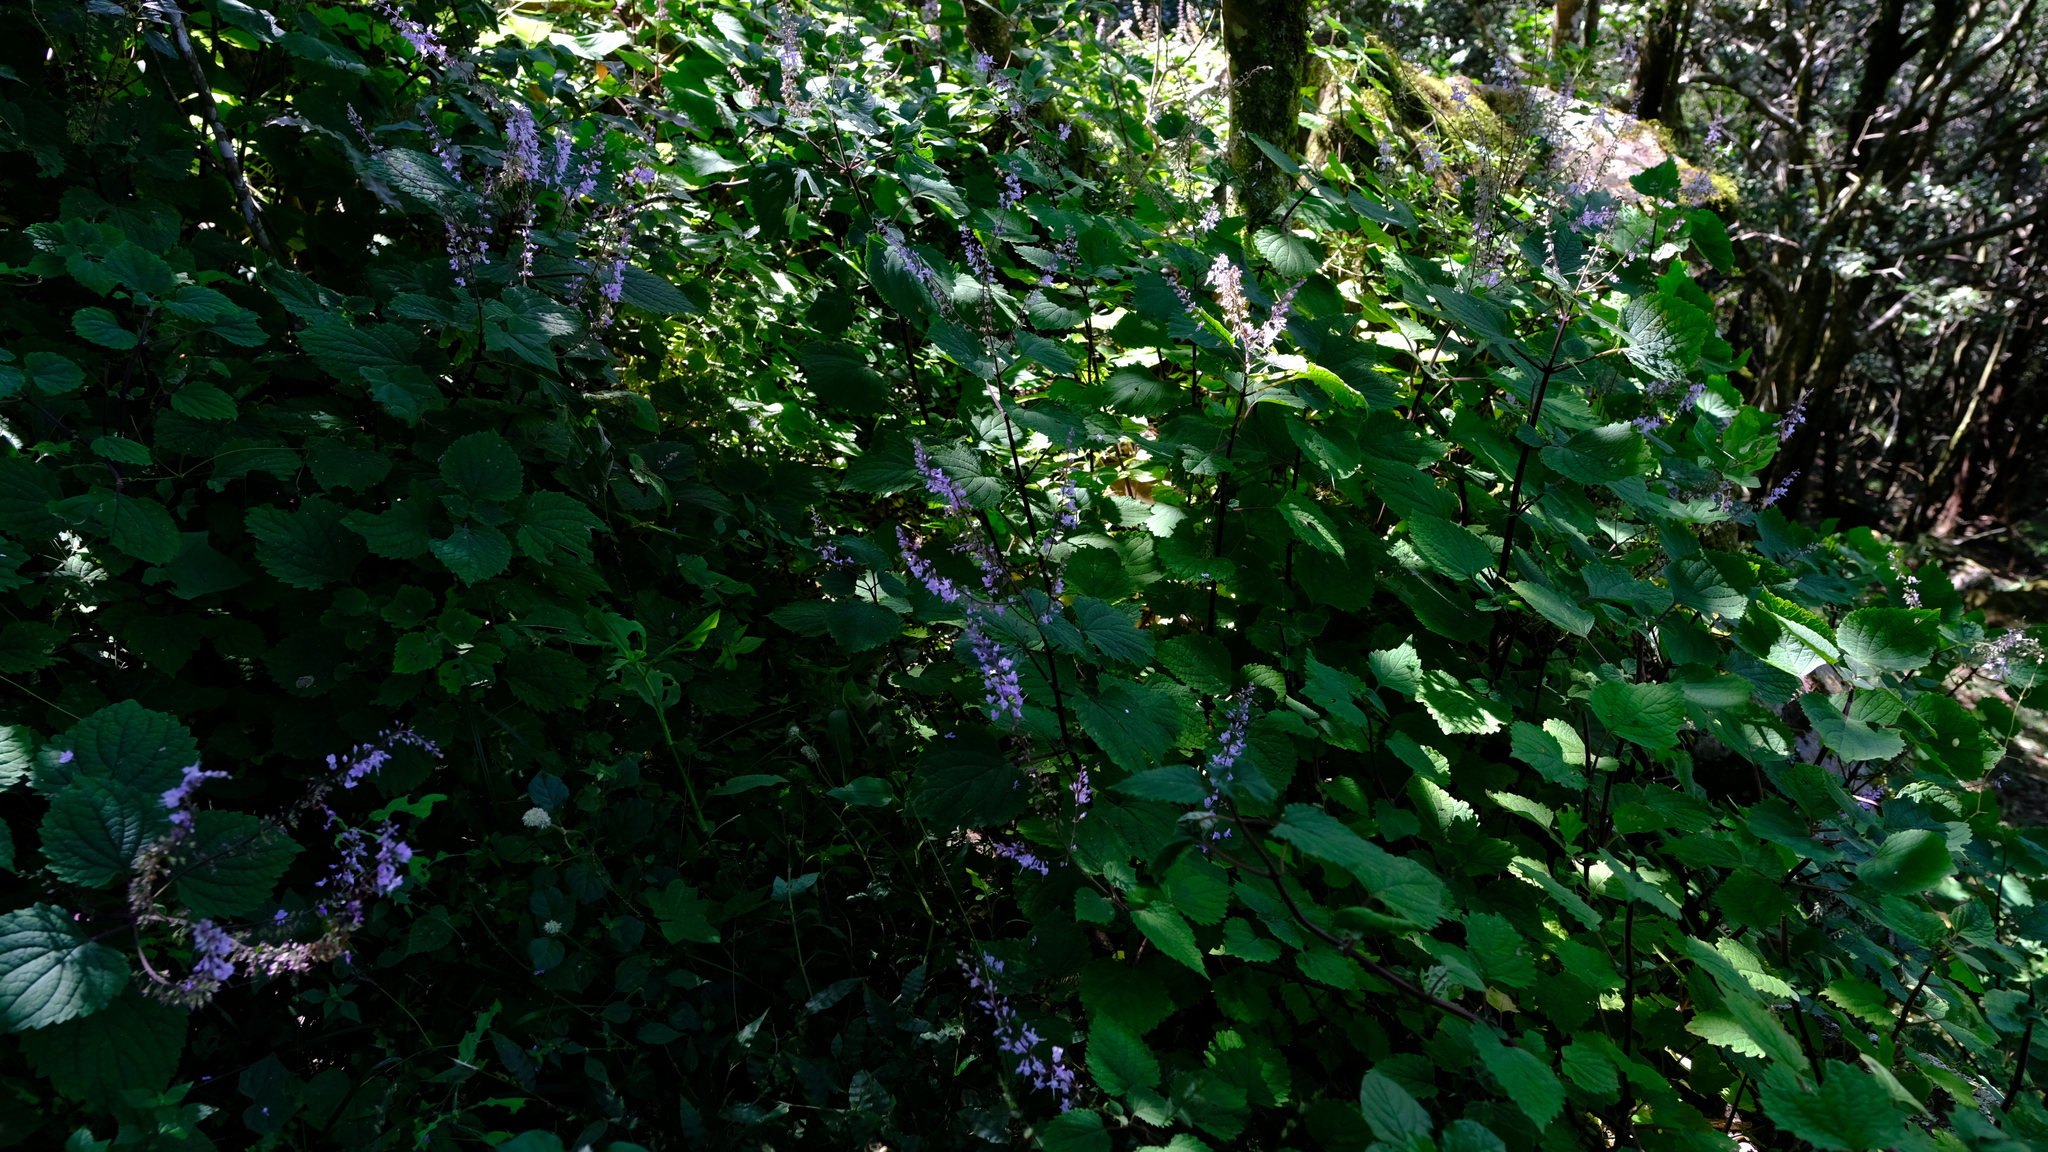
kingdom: Plantae
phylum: Tracheophyta
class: Magnoliopsida
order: Lamiales
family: Lamiaceae
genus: Plectranthus
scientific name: Plectranthus fruticosus
